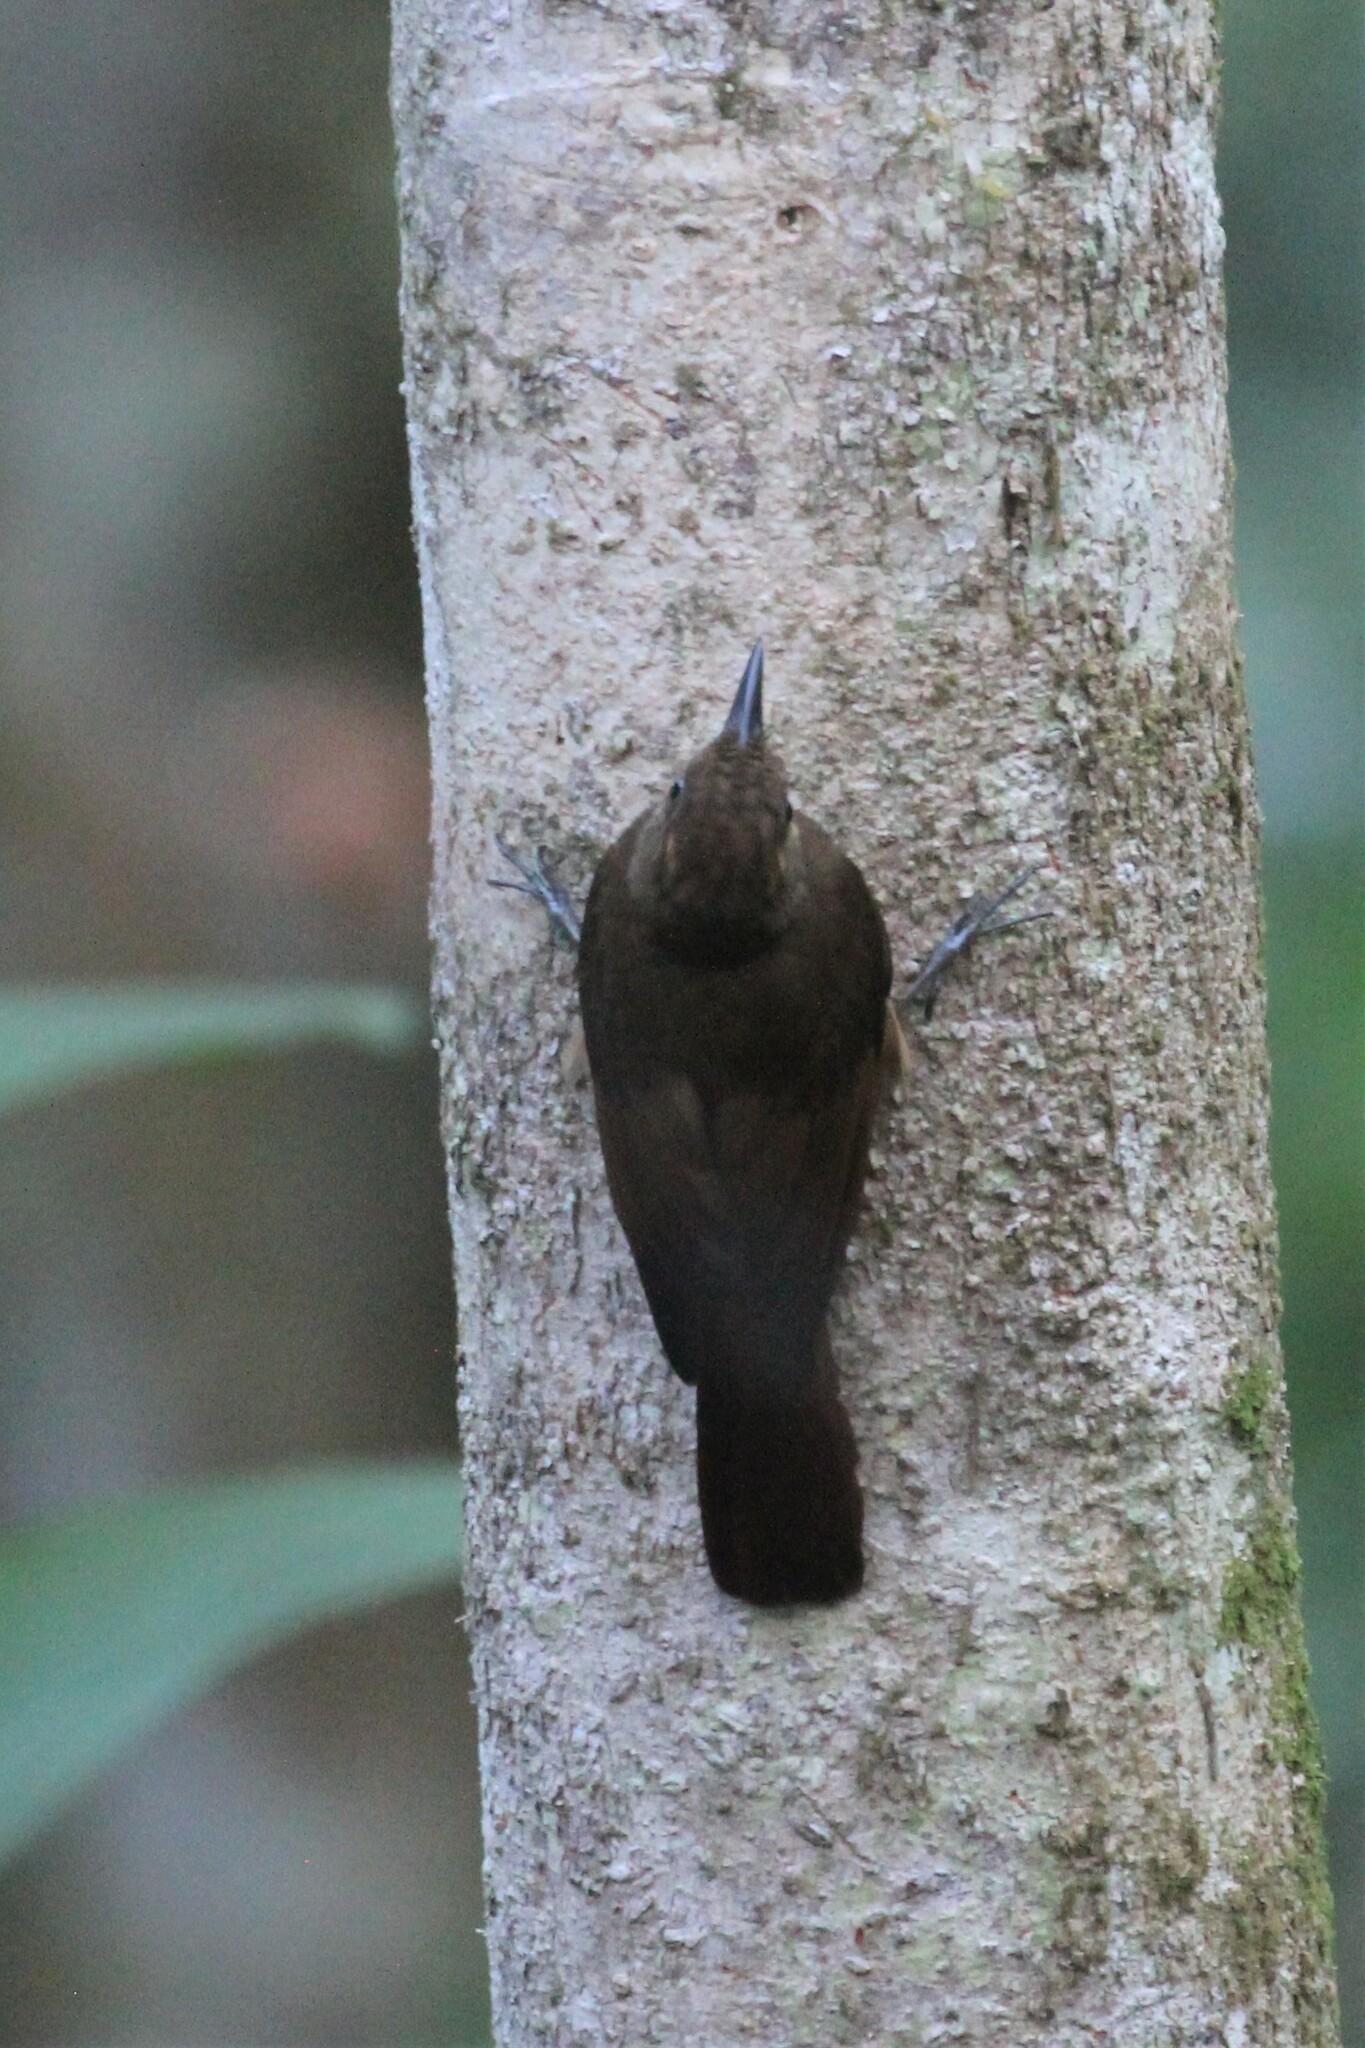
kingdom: Animalia
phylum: Chordata
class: Aves
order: Passeriformes
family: Furnariidae
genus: Dendrocincla
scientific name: Dendrocincla anabatina
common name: Tawny-winged woodcreeper
